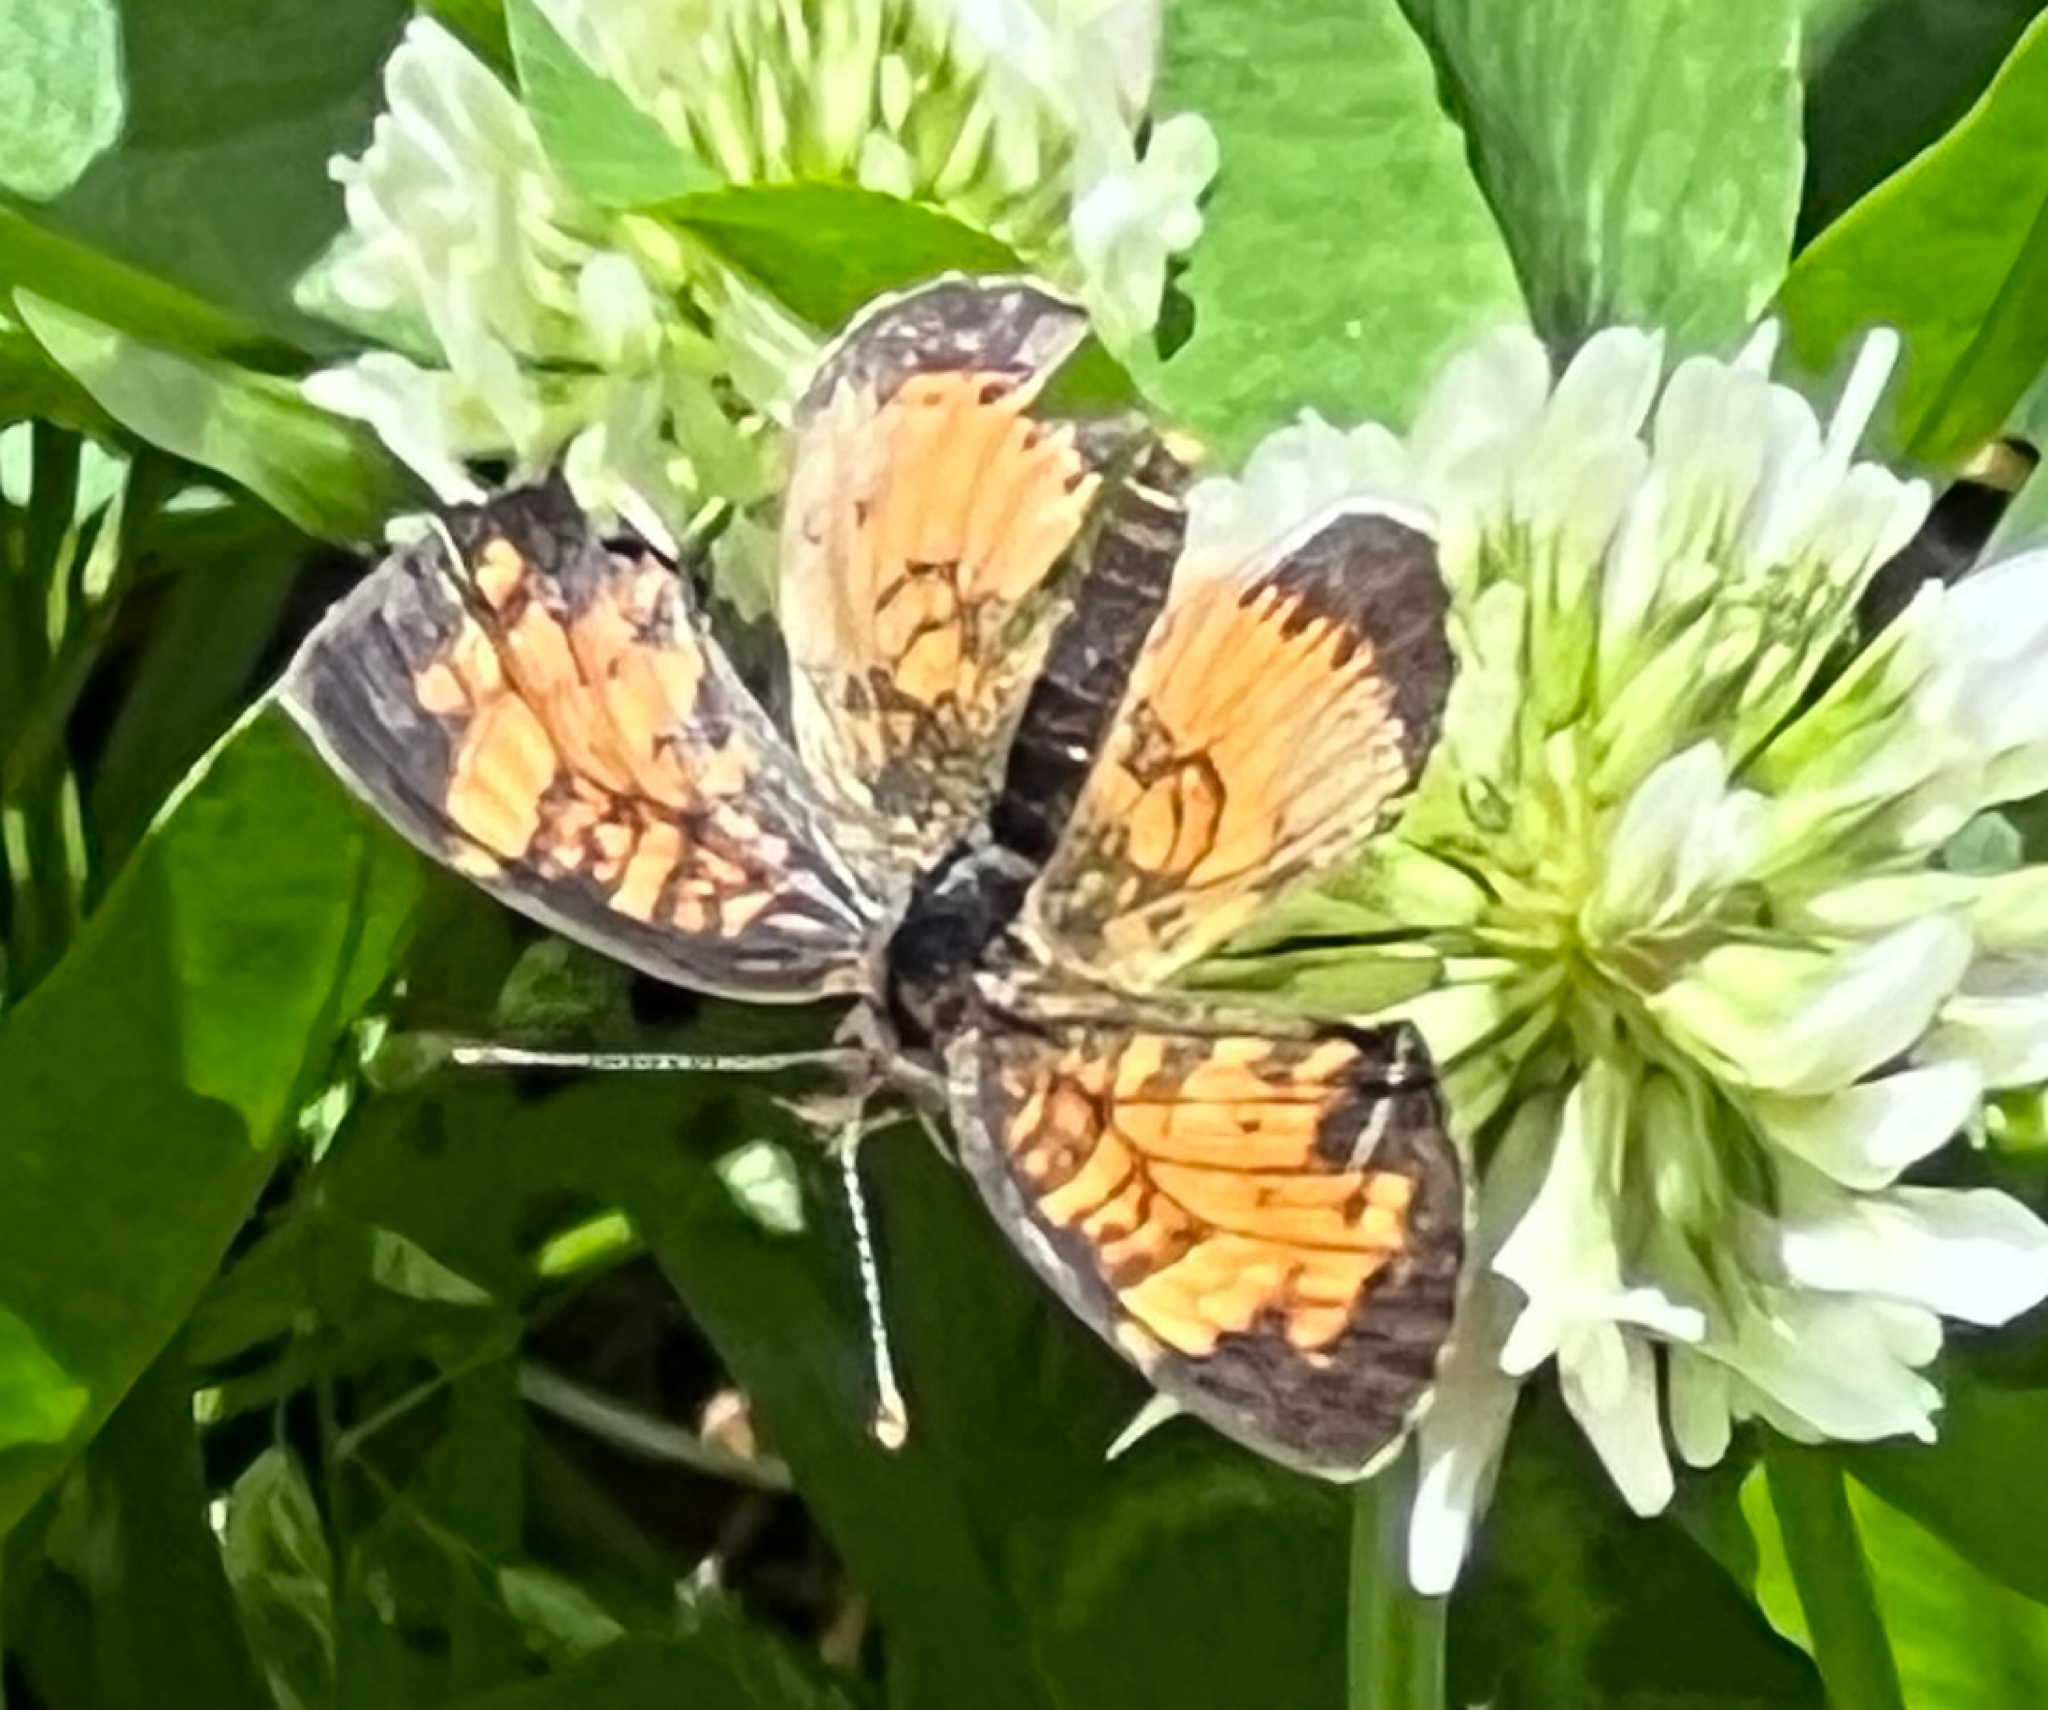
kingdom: Animalia
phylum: Arthropoda
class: Insecta
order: Lepidoptera
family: Nymphalidae
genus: Phyciodes
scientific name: Phyciodes tharos
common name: Pearl crescent
